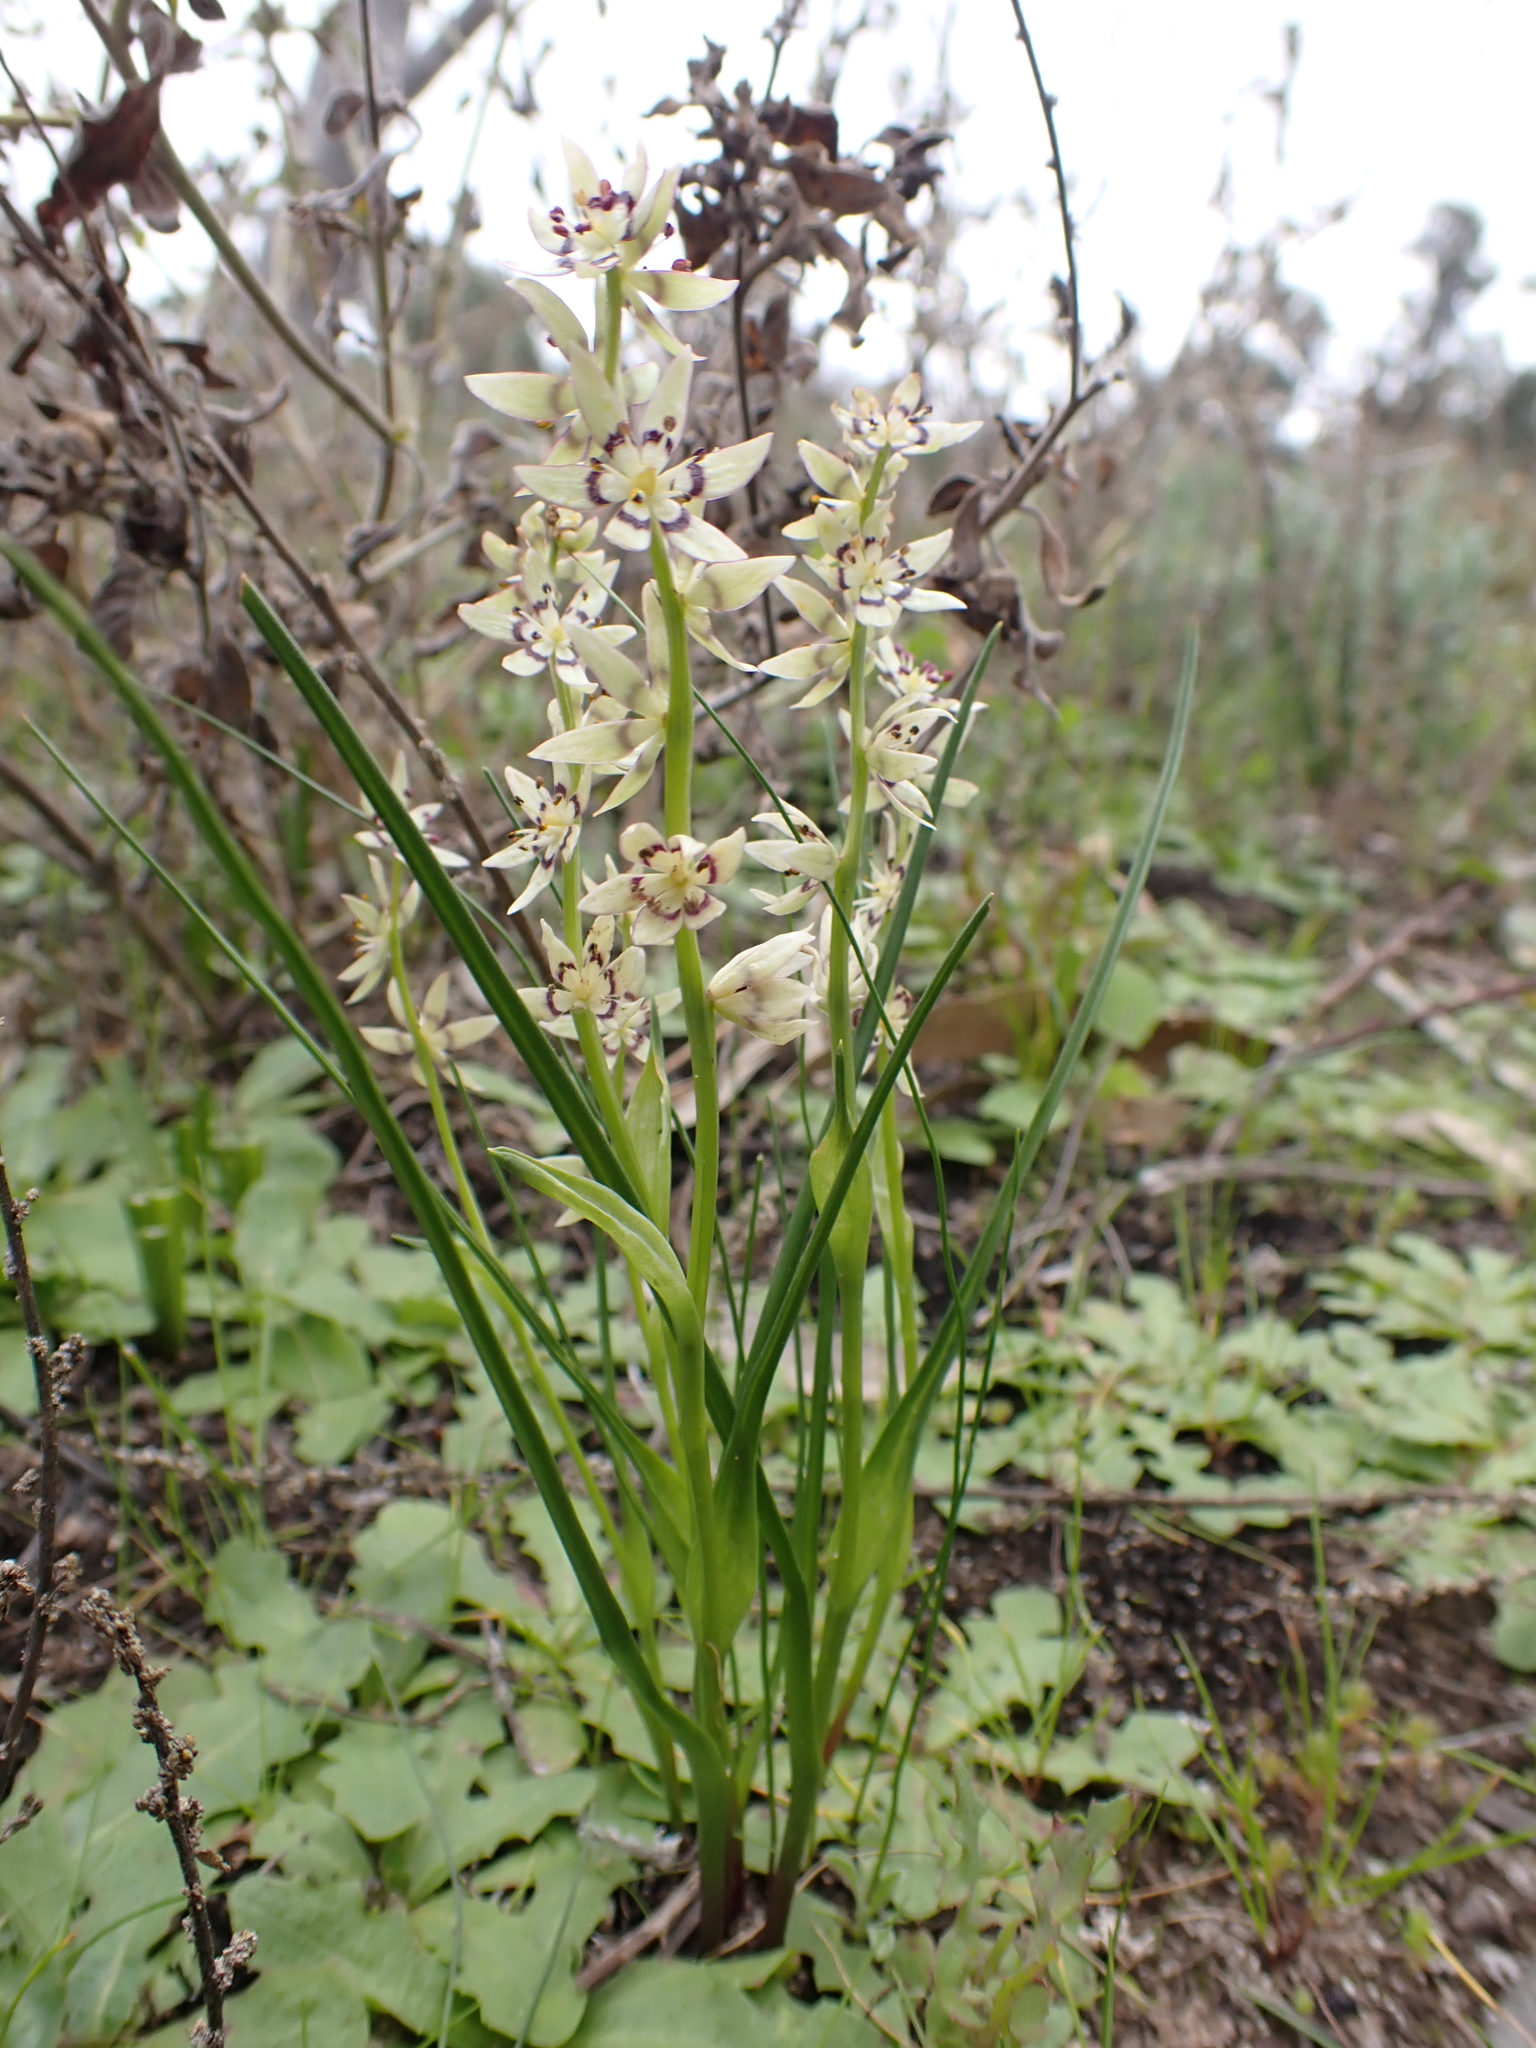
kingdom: Plantae
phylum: Tracheophyta
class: Liliopsida
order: Liliales
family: Colchicaceae
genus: Wurmbea
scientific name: Wurmbea dioica
